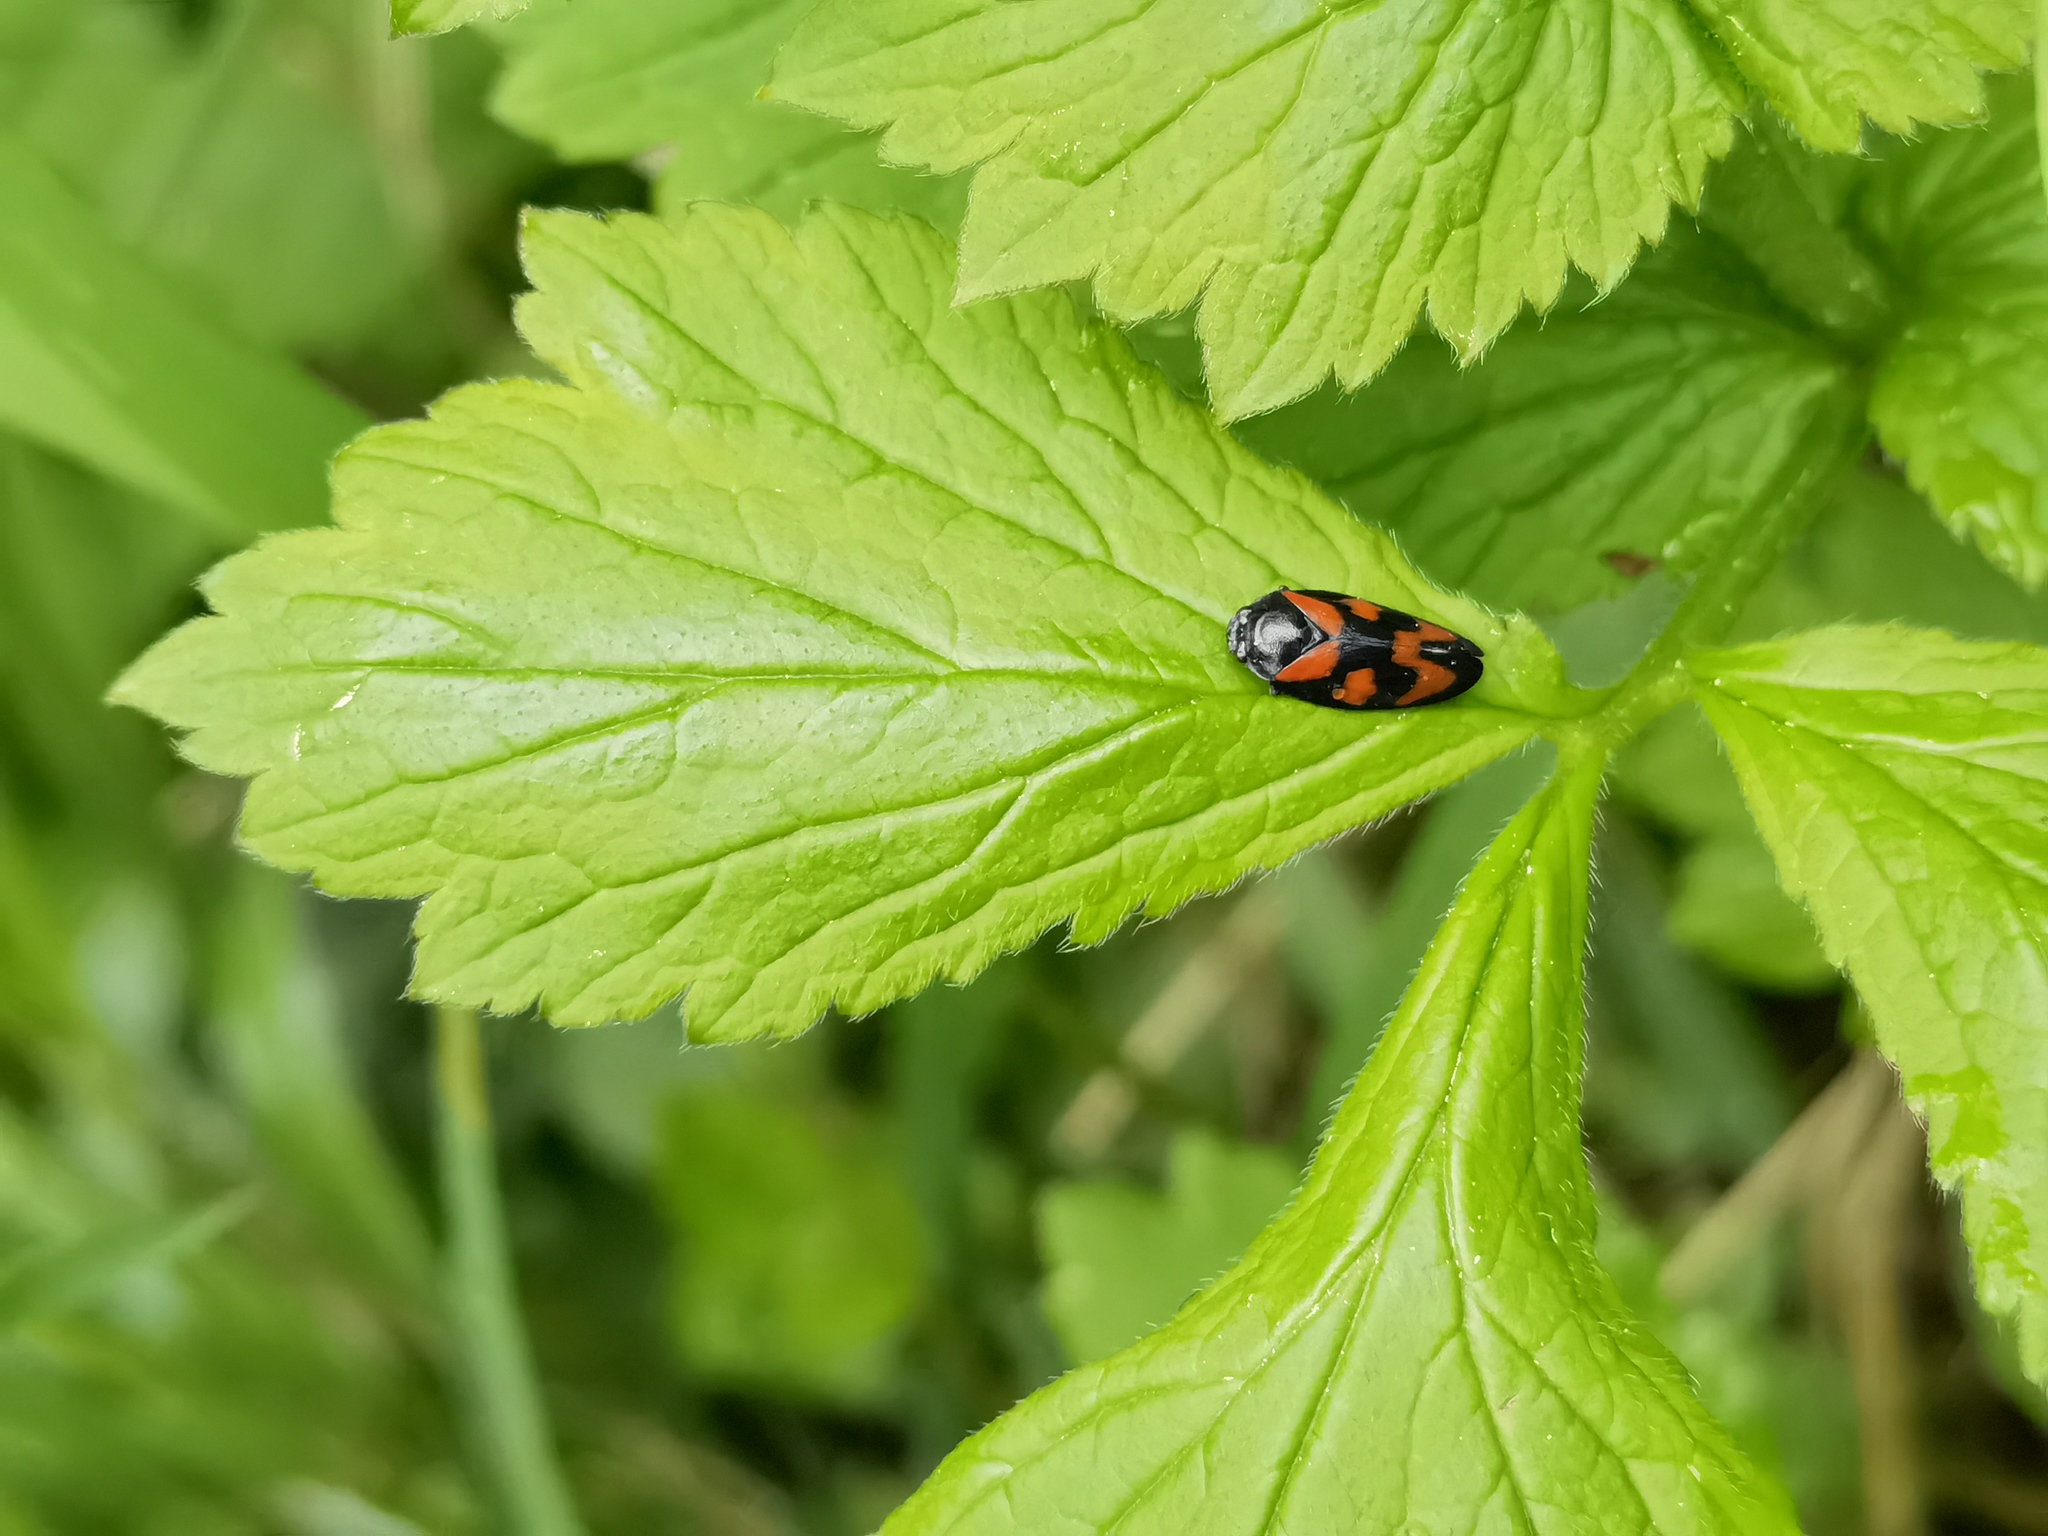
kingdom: Animalia
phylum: Arthropoda
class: Insecta
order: Hemiptera
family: Cercopidae
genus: Cercopis
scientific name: Cercopis vulnerata
